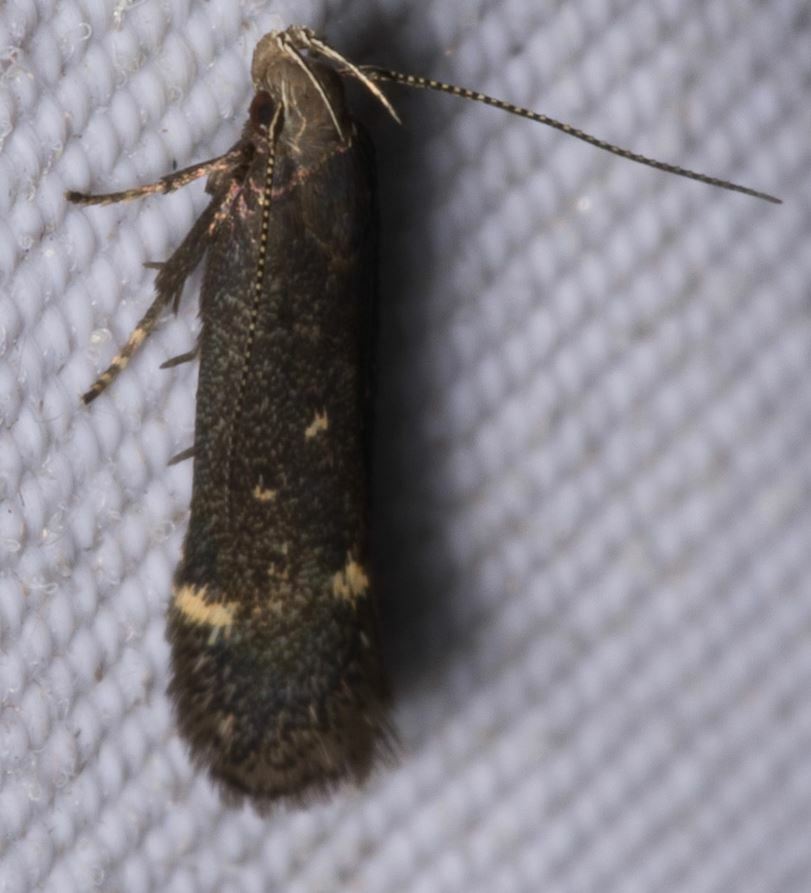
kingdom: Animalia
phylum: Arthropoda
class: Insecta
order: Lepidoptera
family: Gelechiidae
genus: Aproaerema
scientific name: Aproaerema anthyllidella
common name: Vetch sober
